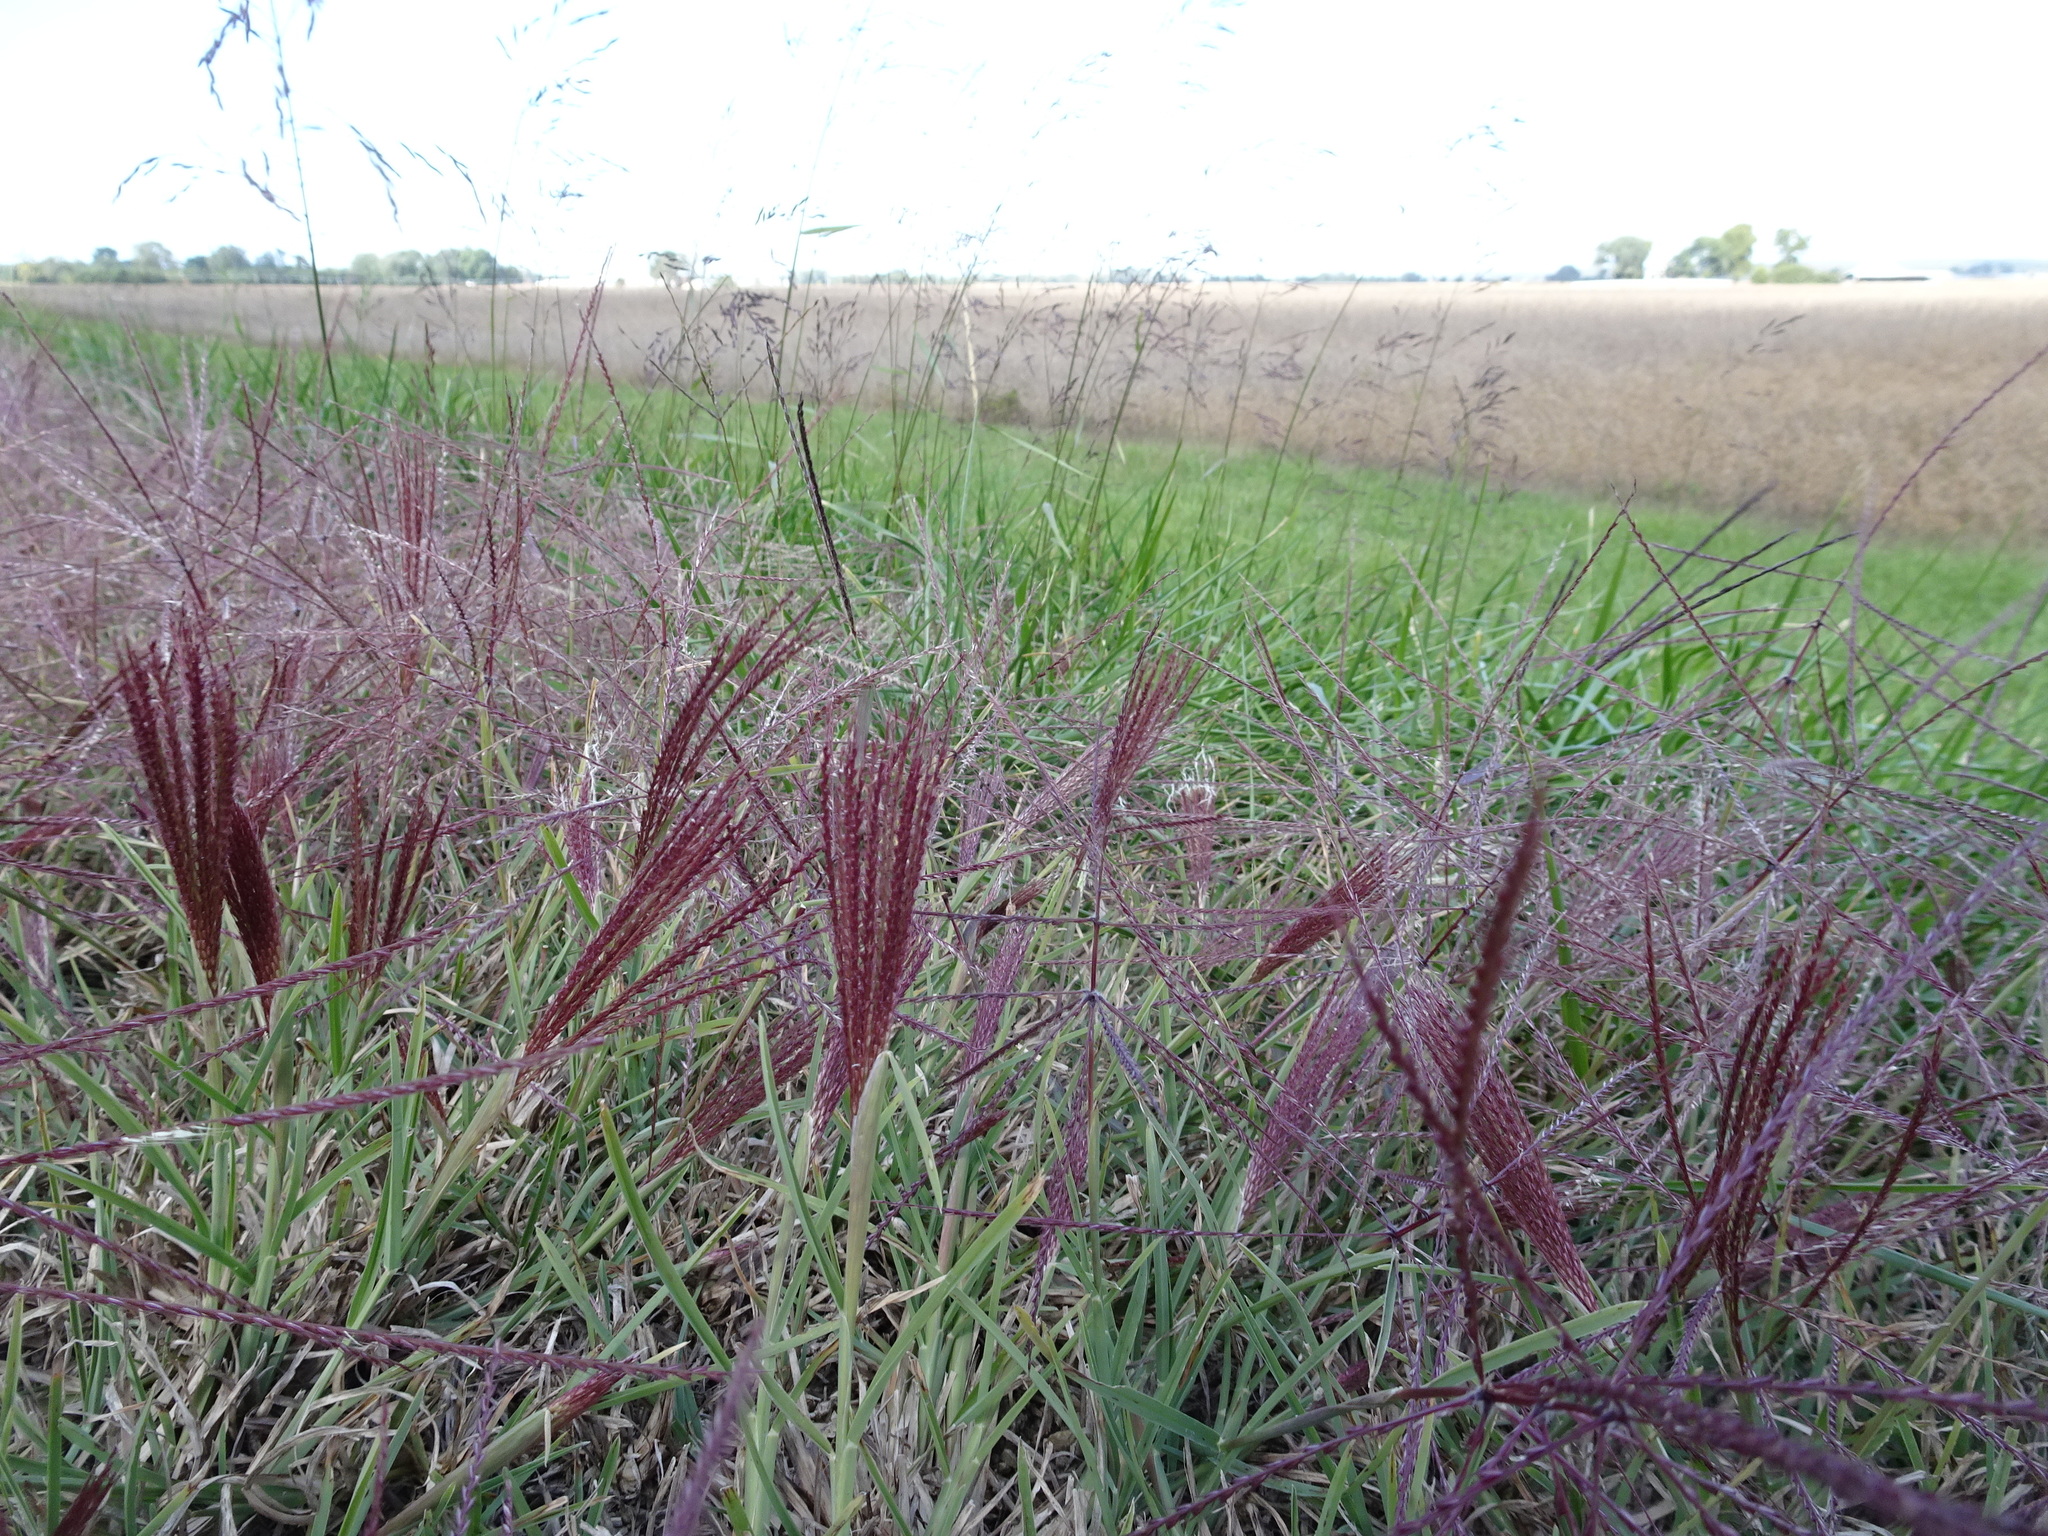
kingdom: Plantae
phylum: Tracheophyta
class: Liliopsida
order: Poales
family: Poaceae
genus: Chloris
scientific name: Chloris verticillata
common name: Tumble windmill grass
